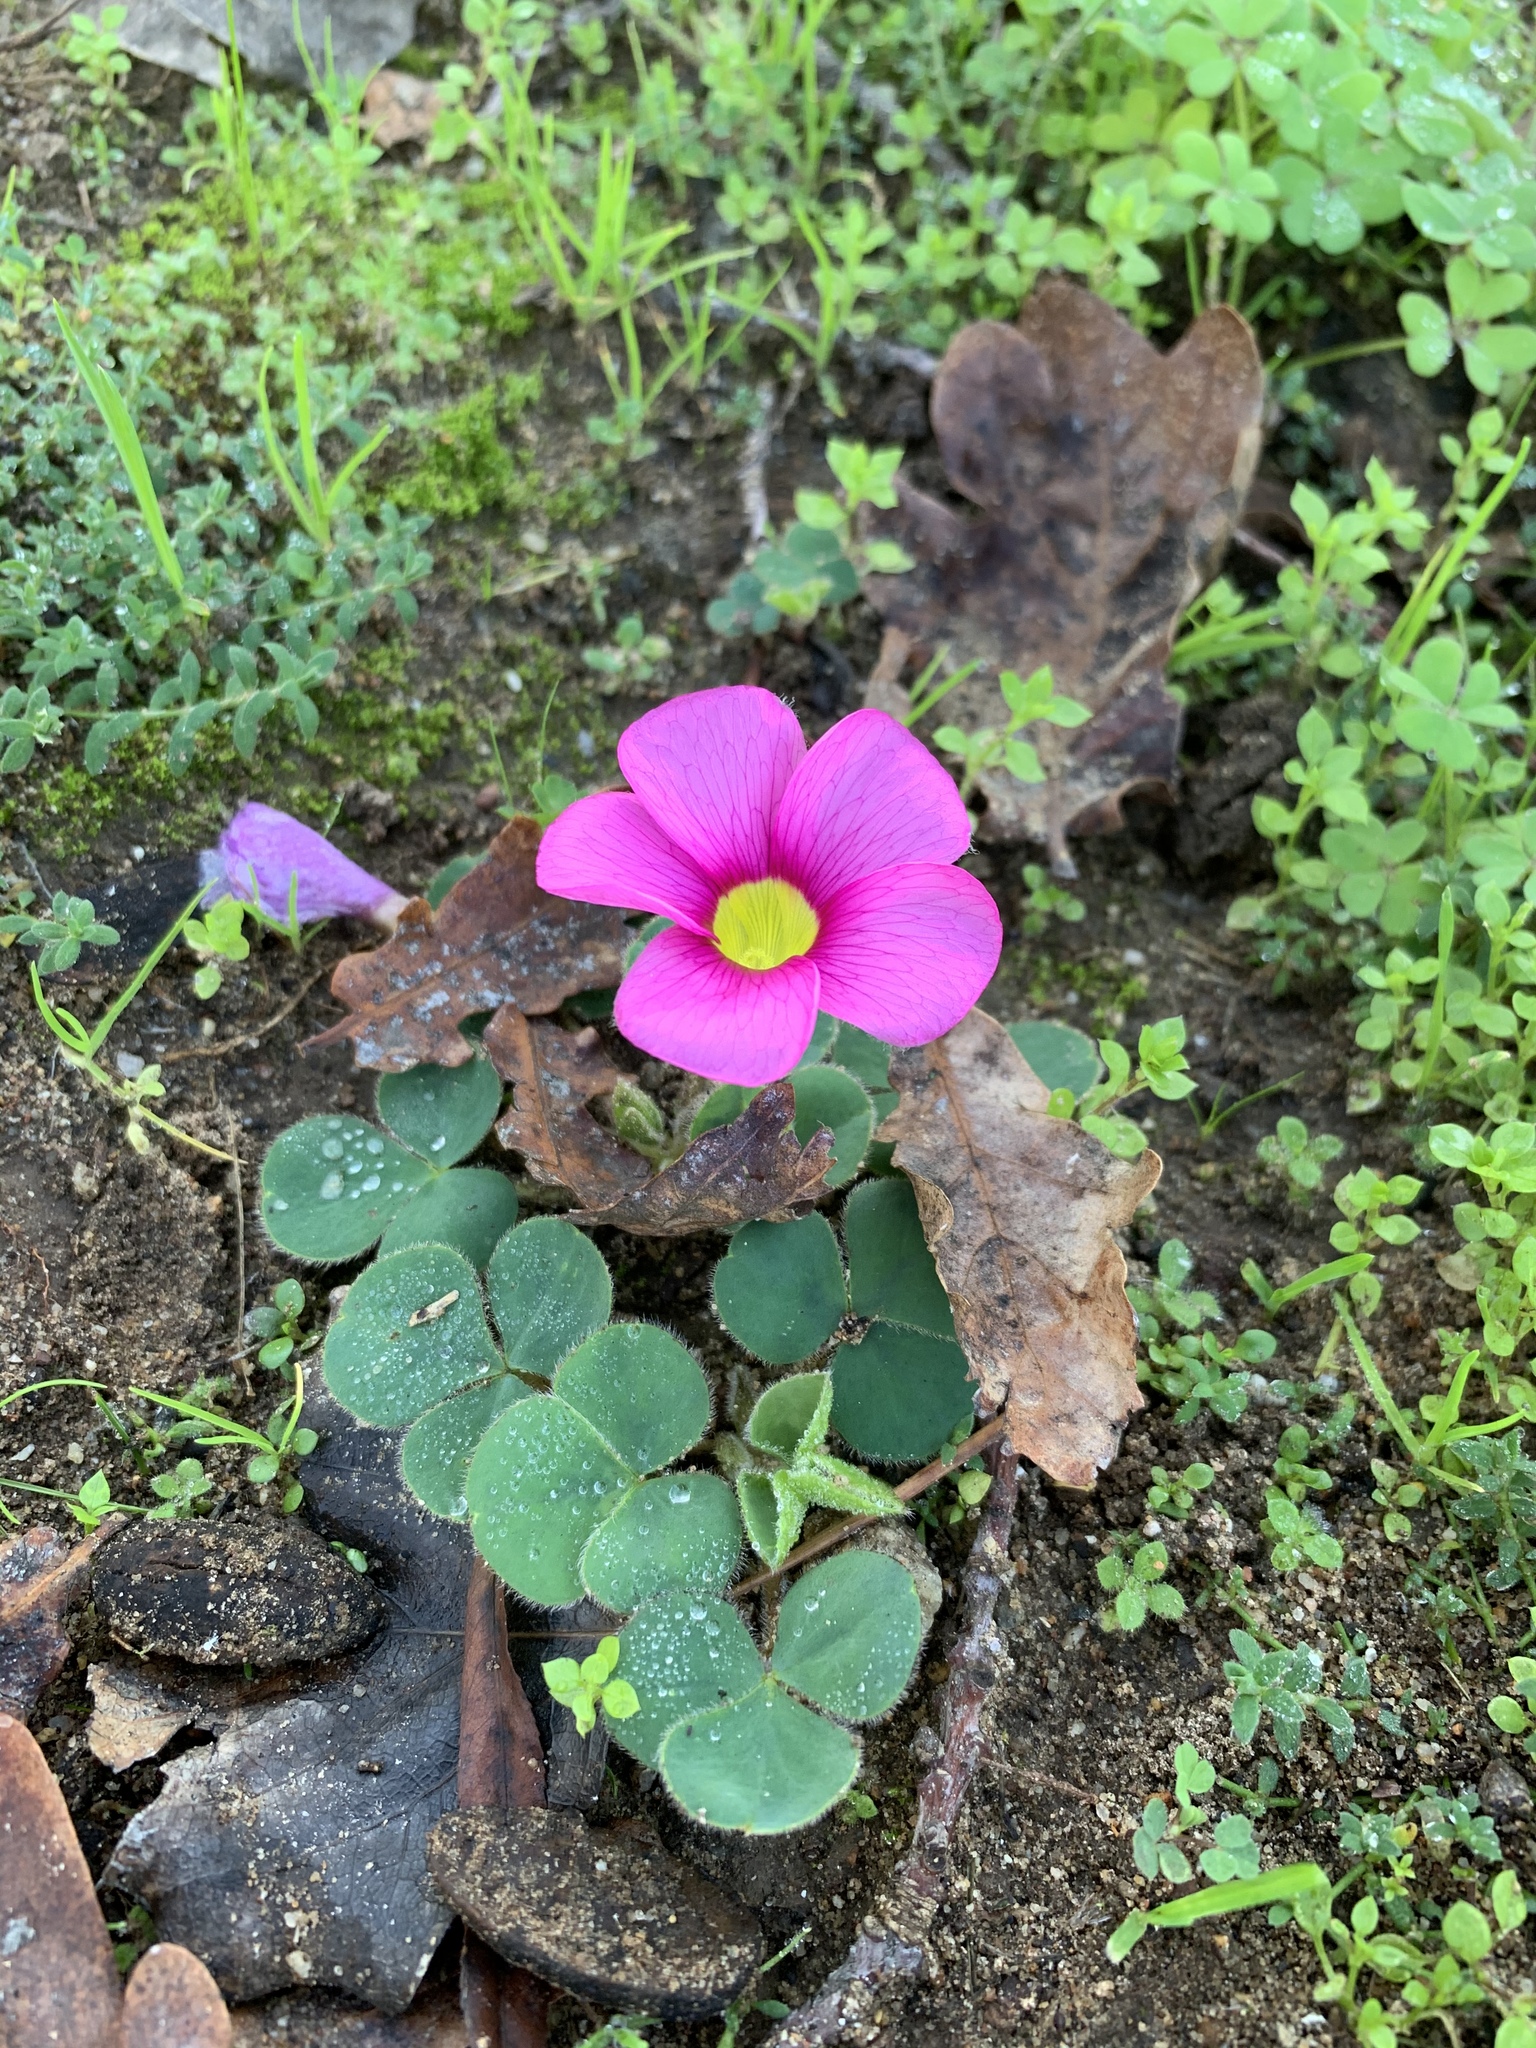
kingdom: Plantae
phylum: Tracheophyta
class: Magnoliopsida
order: Oxalidales
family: Oxalidaceae
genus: Oxalis
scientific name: Oxalis purpurea
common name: Purple woodsorrel
